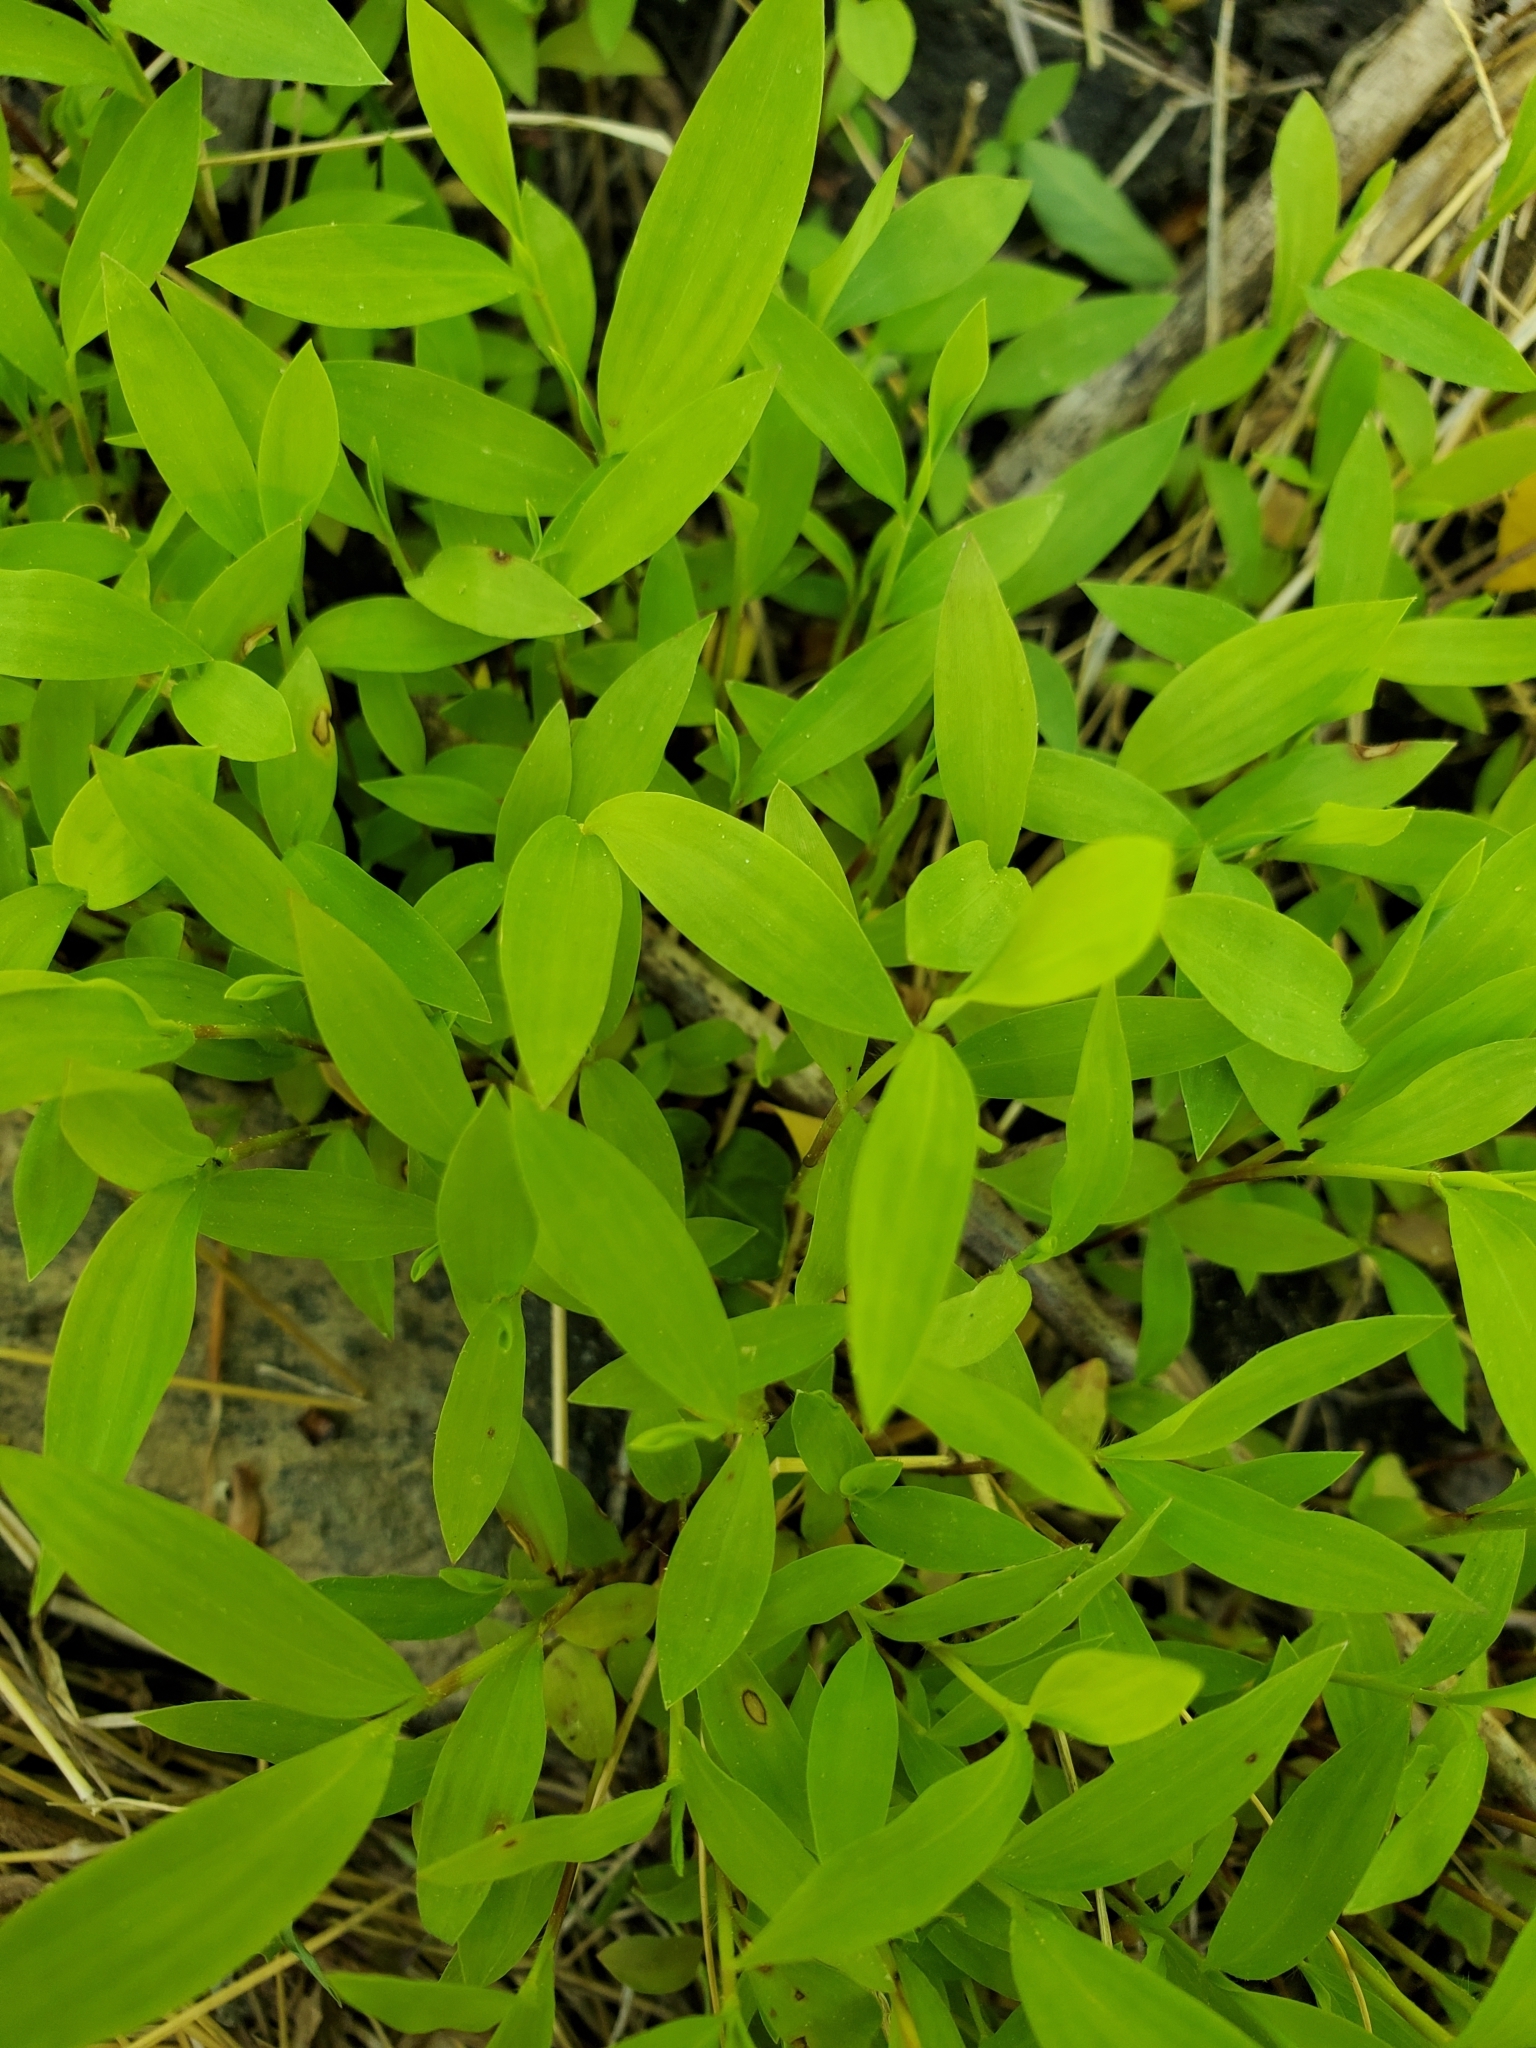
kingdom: Plantae
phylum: Tracheophyta
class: Liliopsida
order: Poales
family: Poaceae
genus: Microstegium
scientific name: Microstegium vimineum
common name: Japanese stiltgrass
